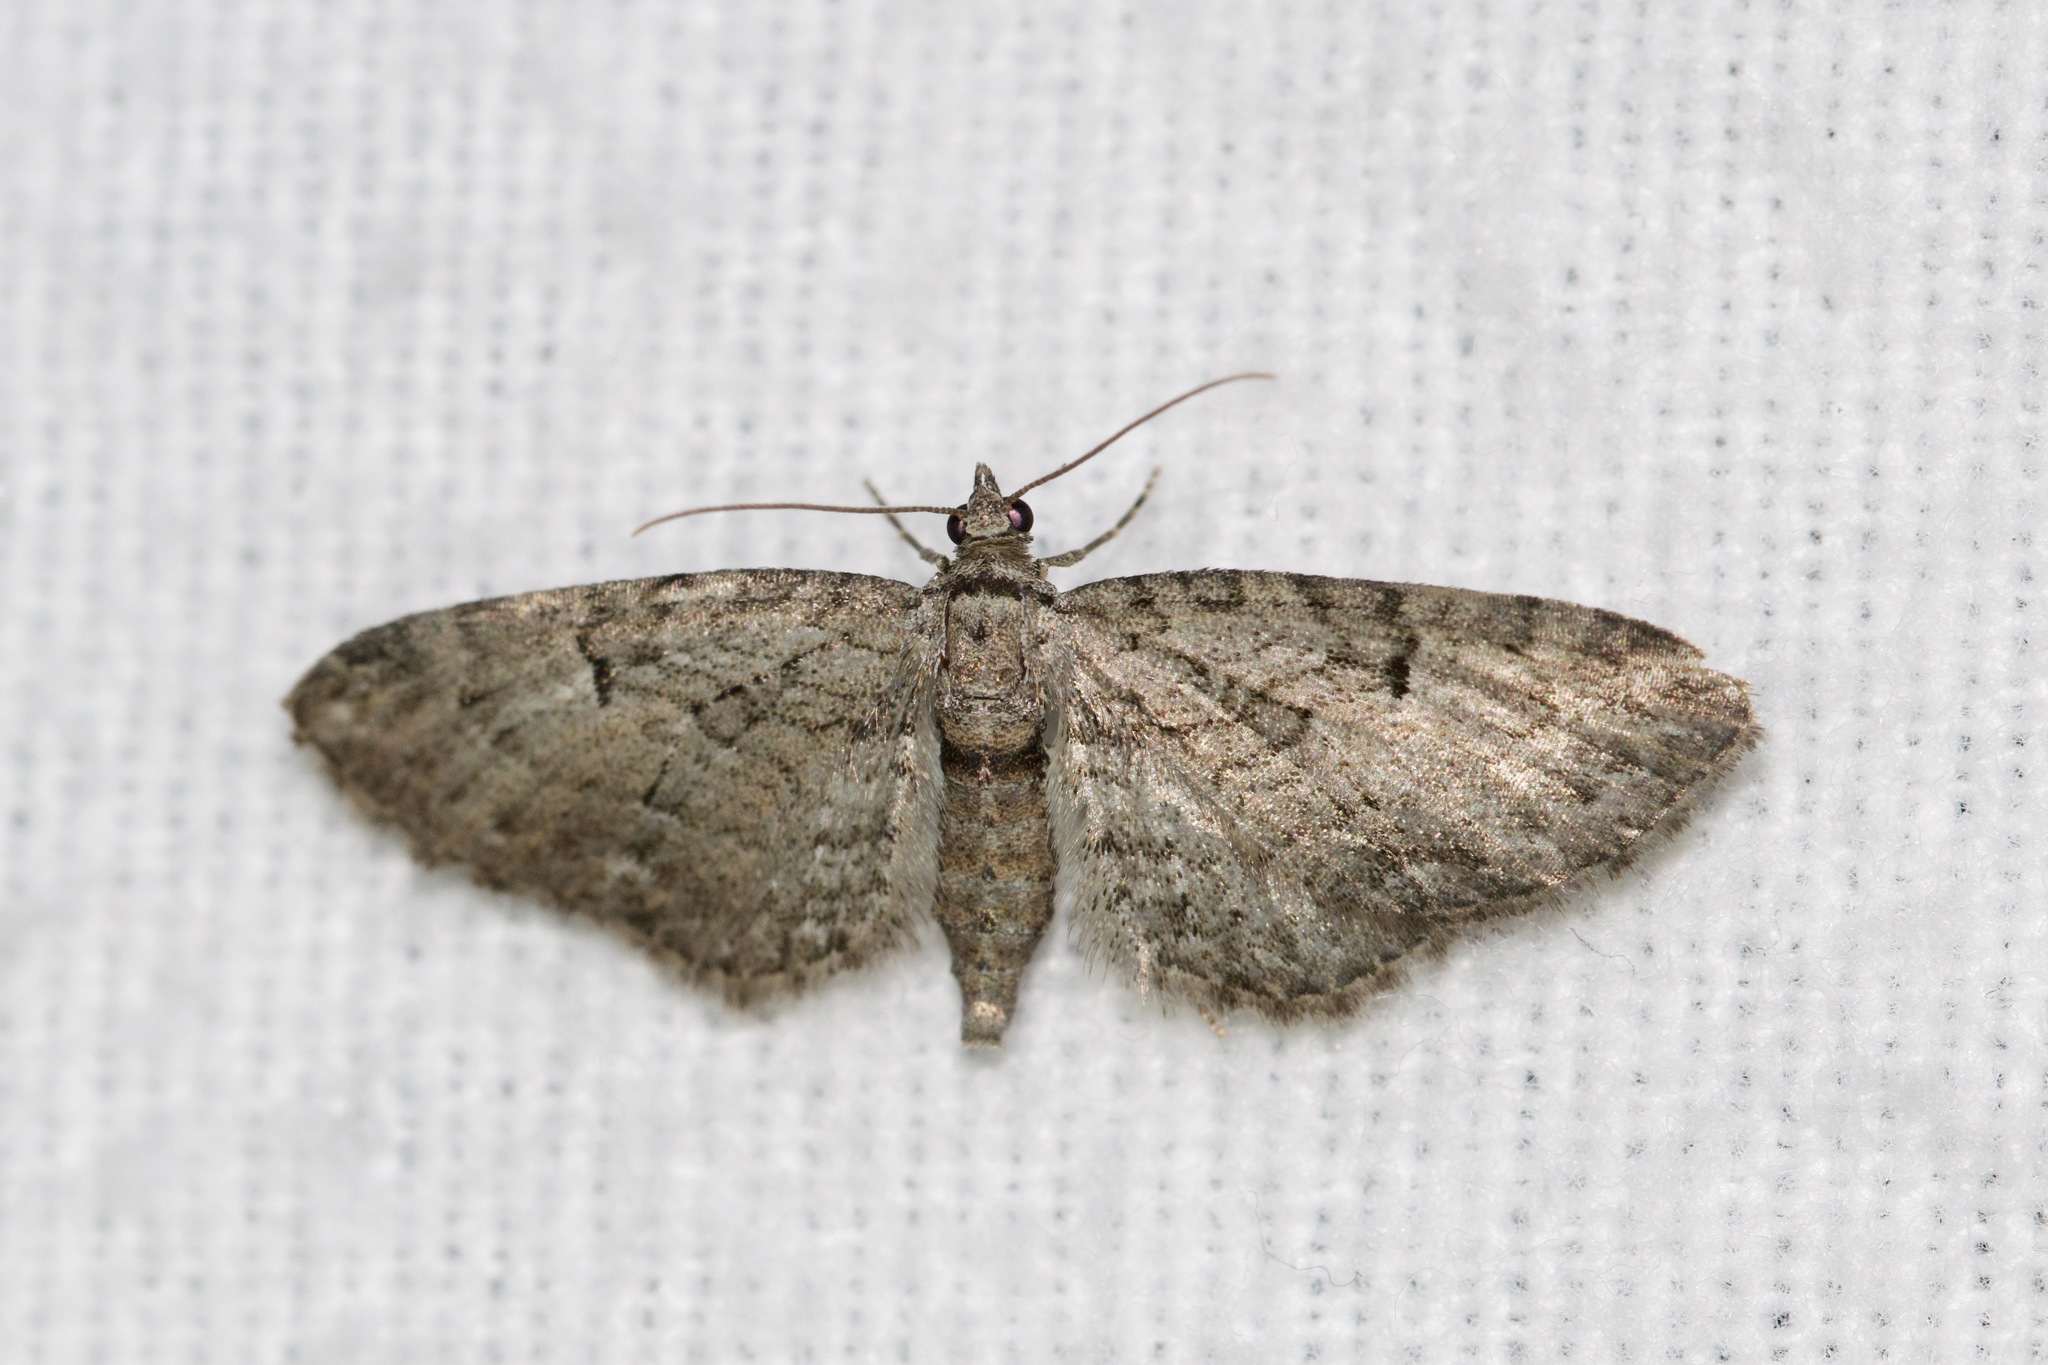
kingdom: Animalia
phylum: Arthropoda
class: Insecta
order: Lepidoptera
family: Geometridae
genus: Eupithecia
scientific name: Eupithecia miserulata
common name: Common eupithecia
